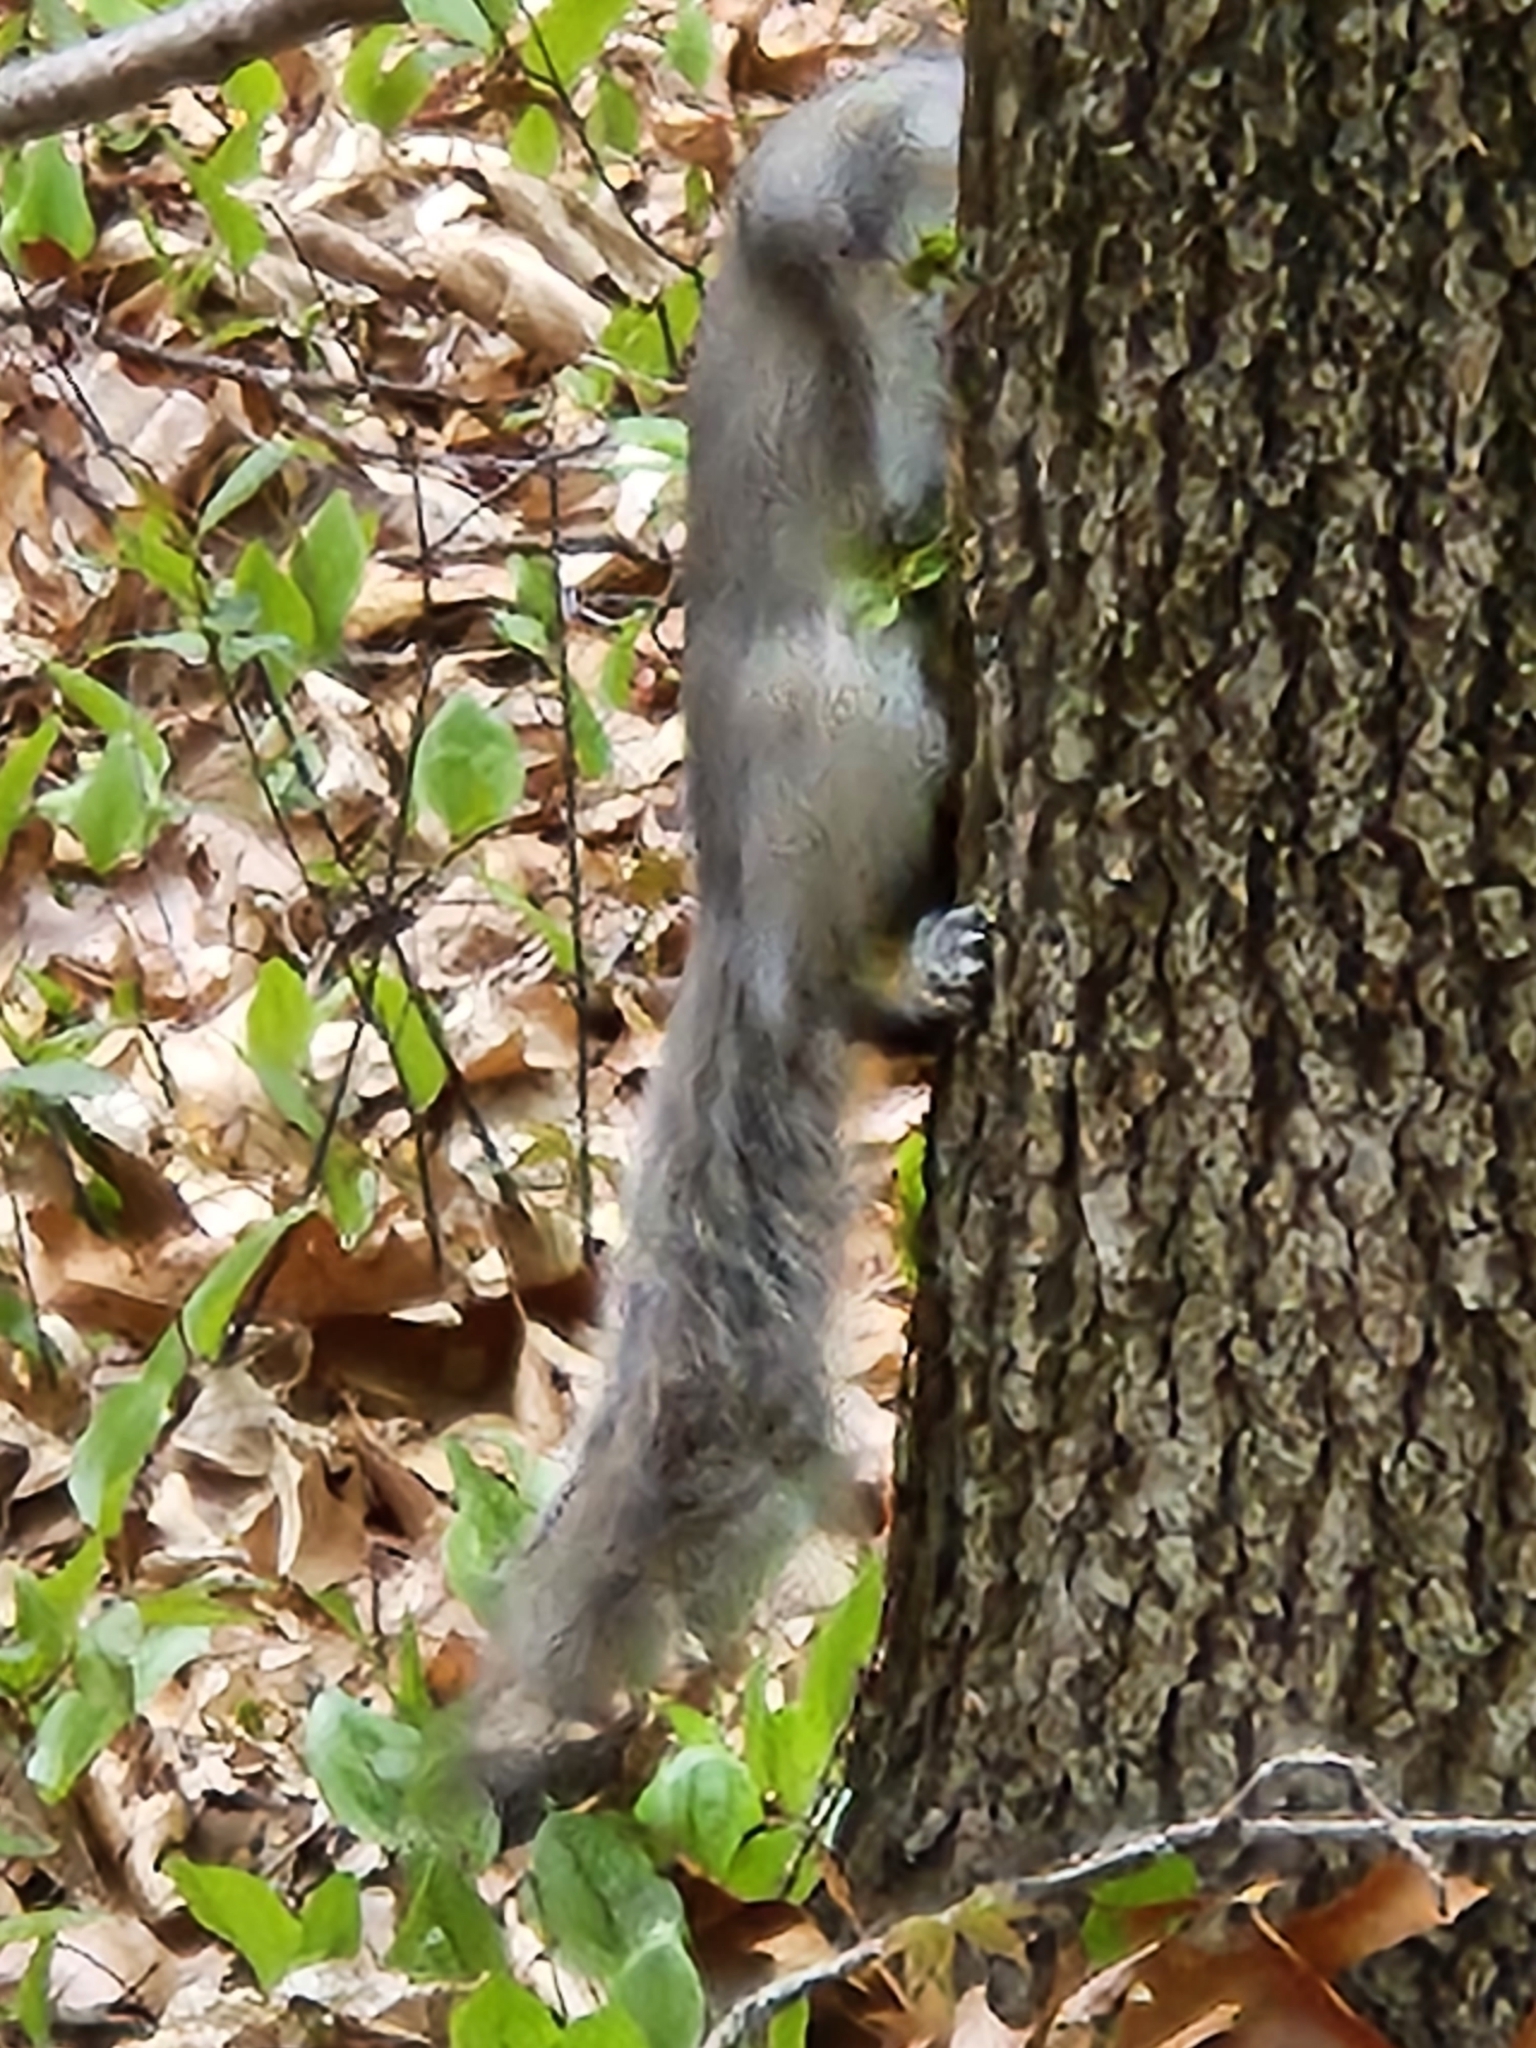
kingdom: Animalia
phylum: Chordata
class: Mammalia
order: Rodentia
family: Sciuridae
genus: Sciurus
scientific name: Sciurus carolinensis
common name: Eastern gray squirrel
